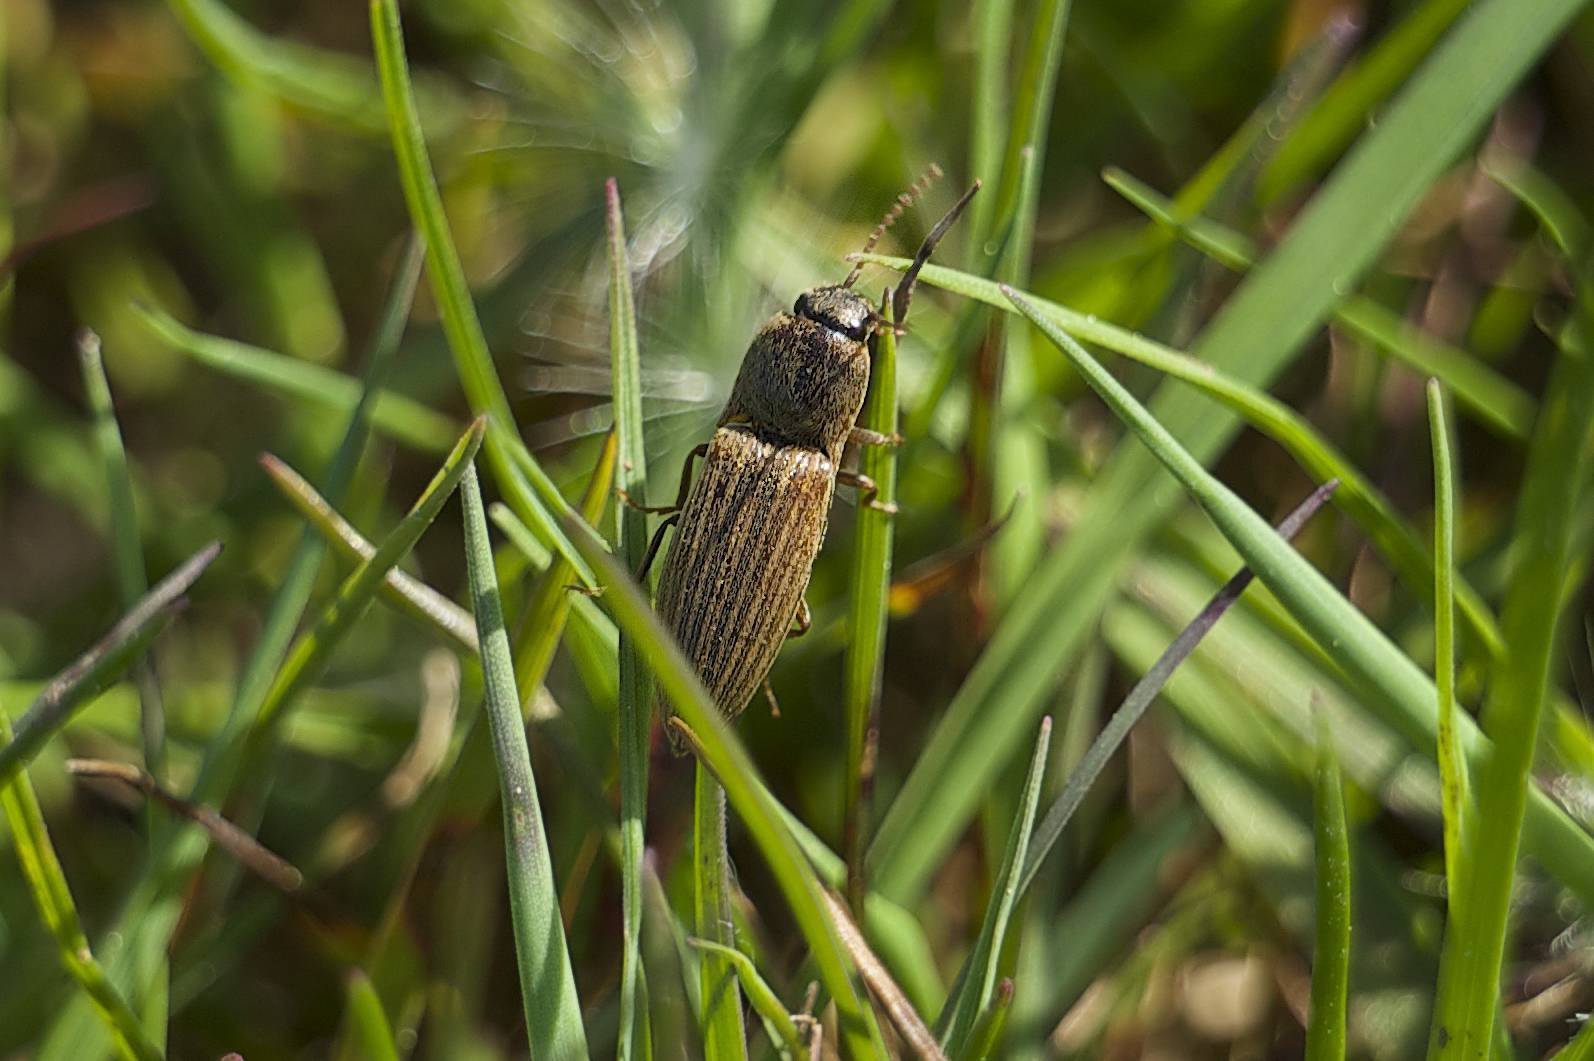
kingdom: Animalia
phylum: Arthropoda
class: Insecta
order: Coleoptera
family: Elateridae
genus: Agriotes
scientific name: Agriotes lineatus
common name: Lined click beetle
